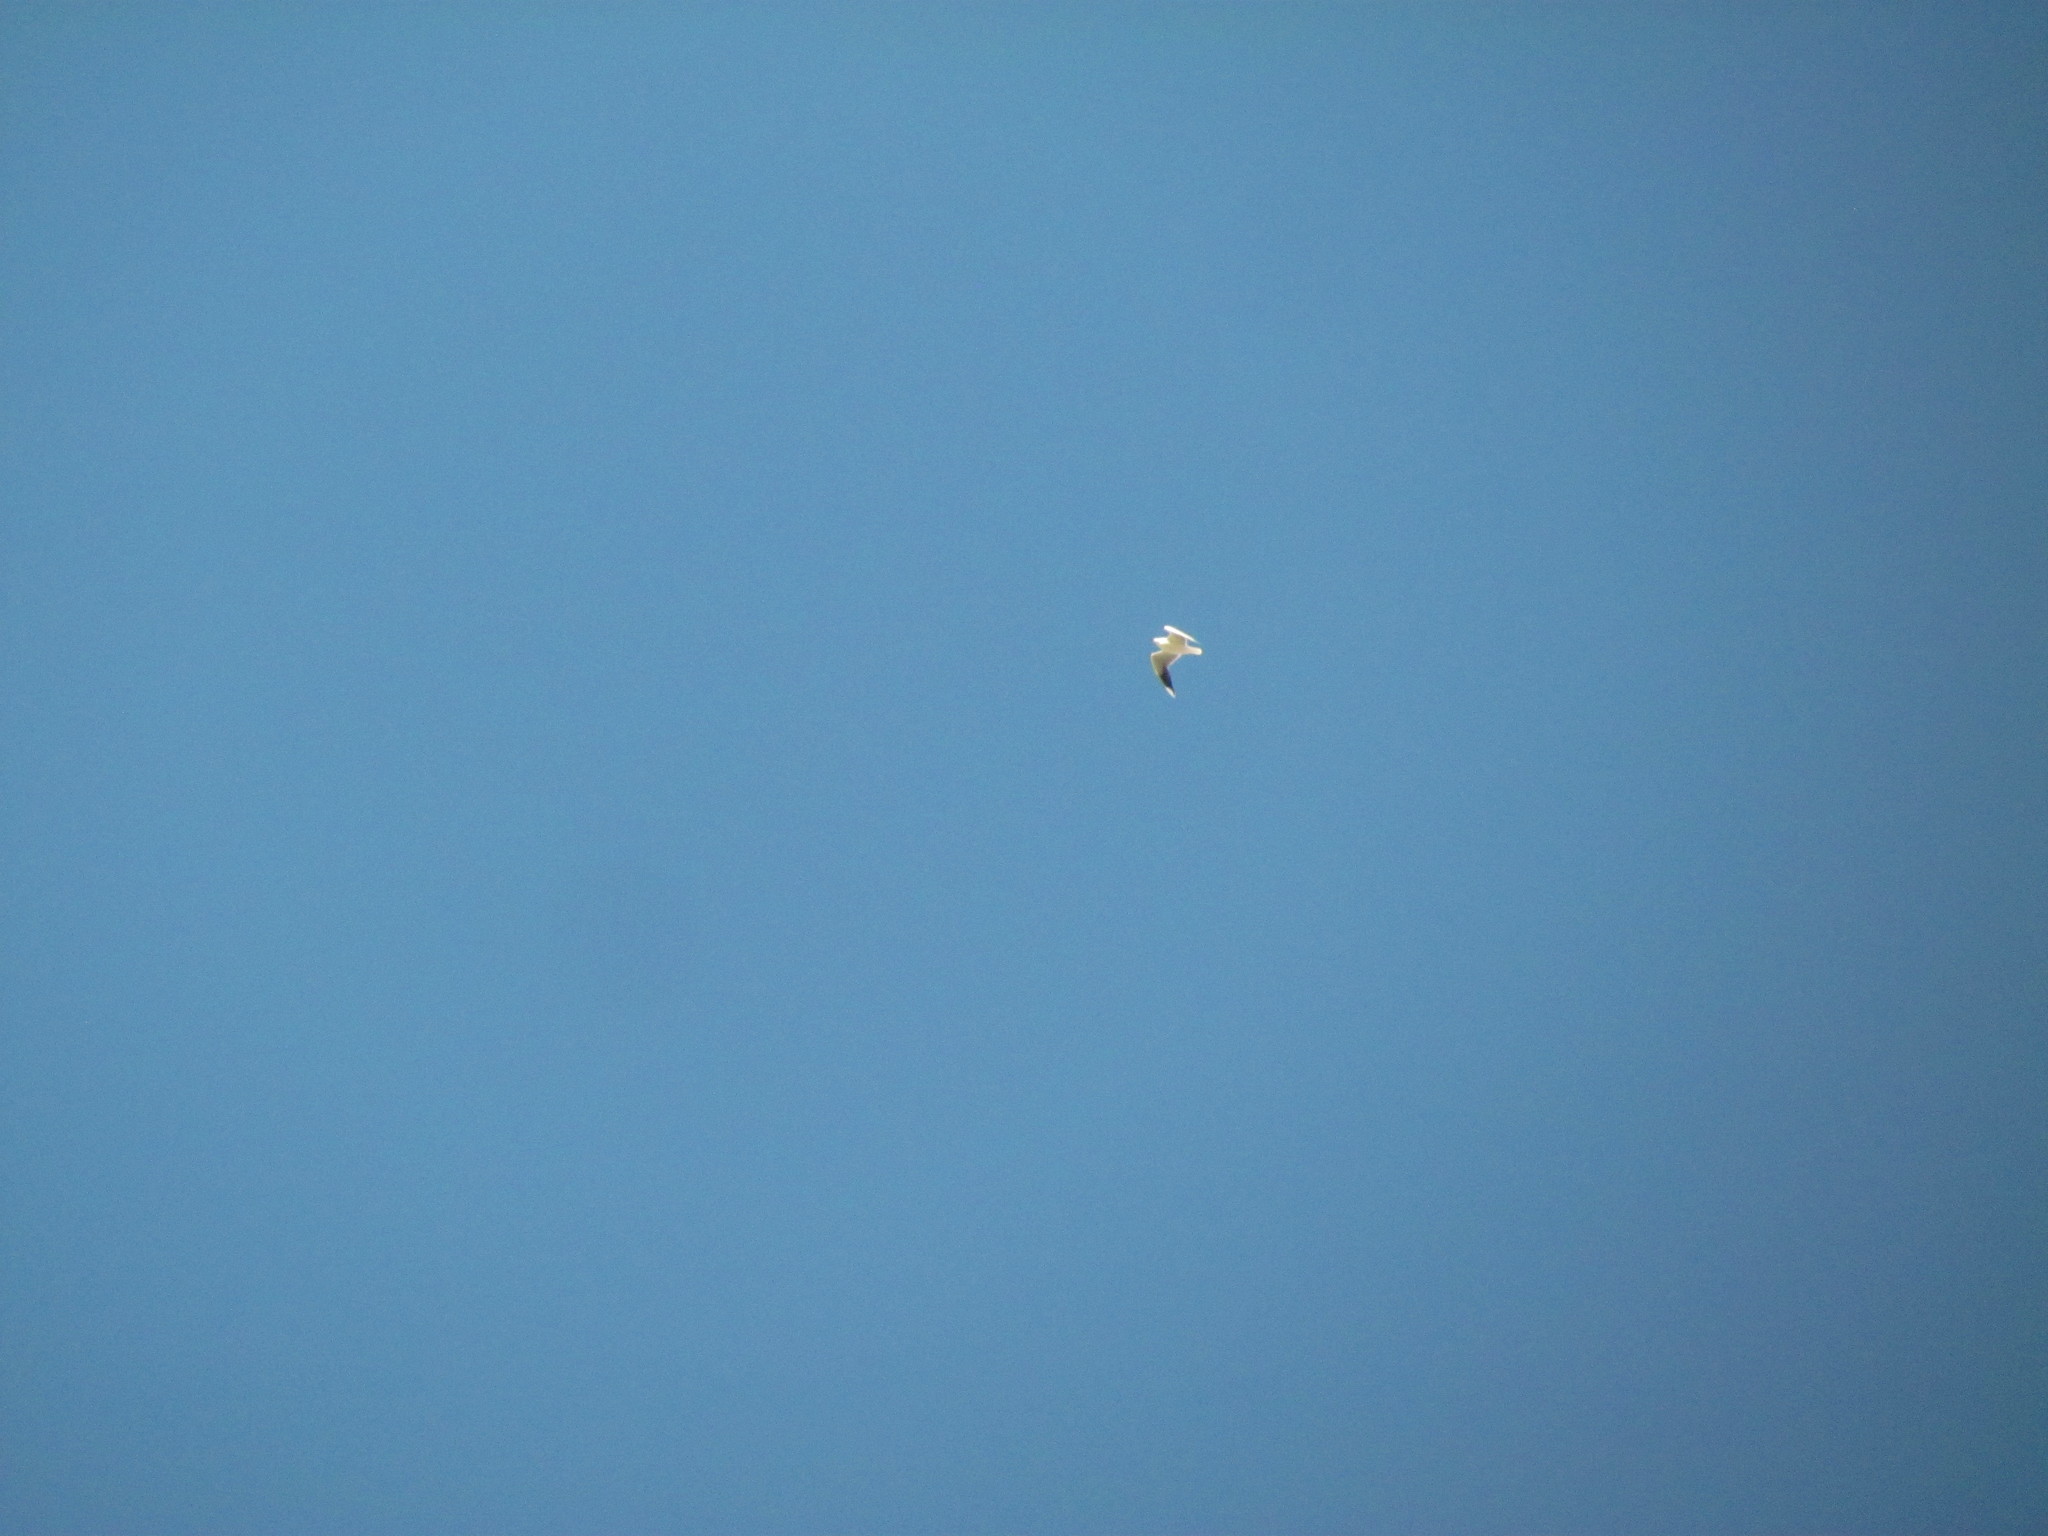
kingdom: Animalia
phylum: Chordata
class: Aves
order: Charadriiformes
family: Laridae
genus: Chroicocephalus
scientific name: Chroicocephalus maculipennis
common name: Brown-hooded gull
